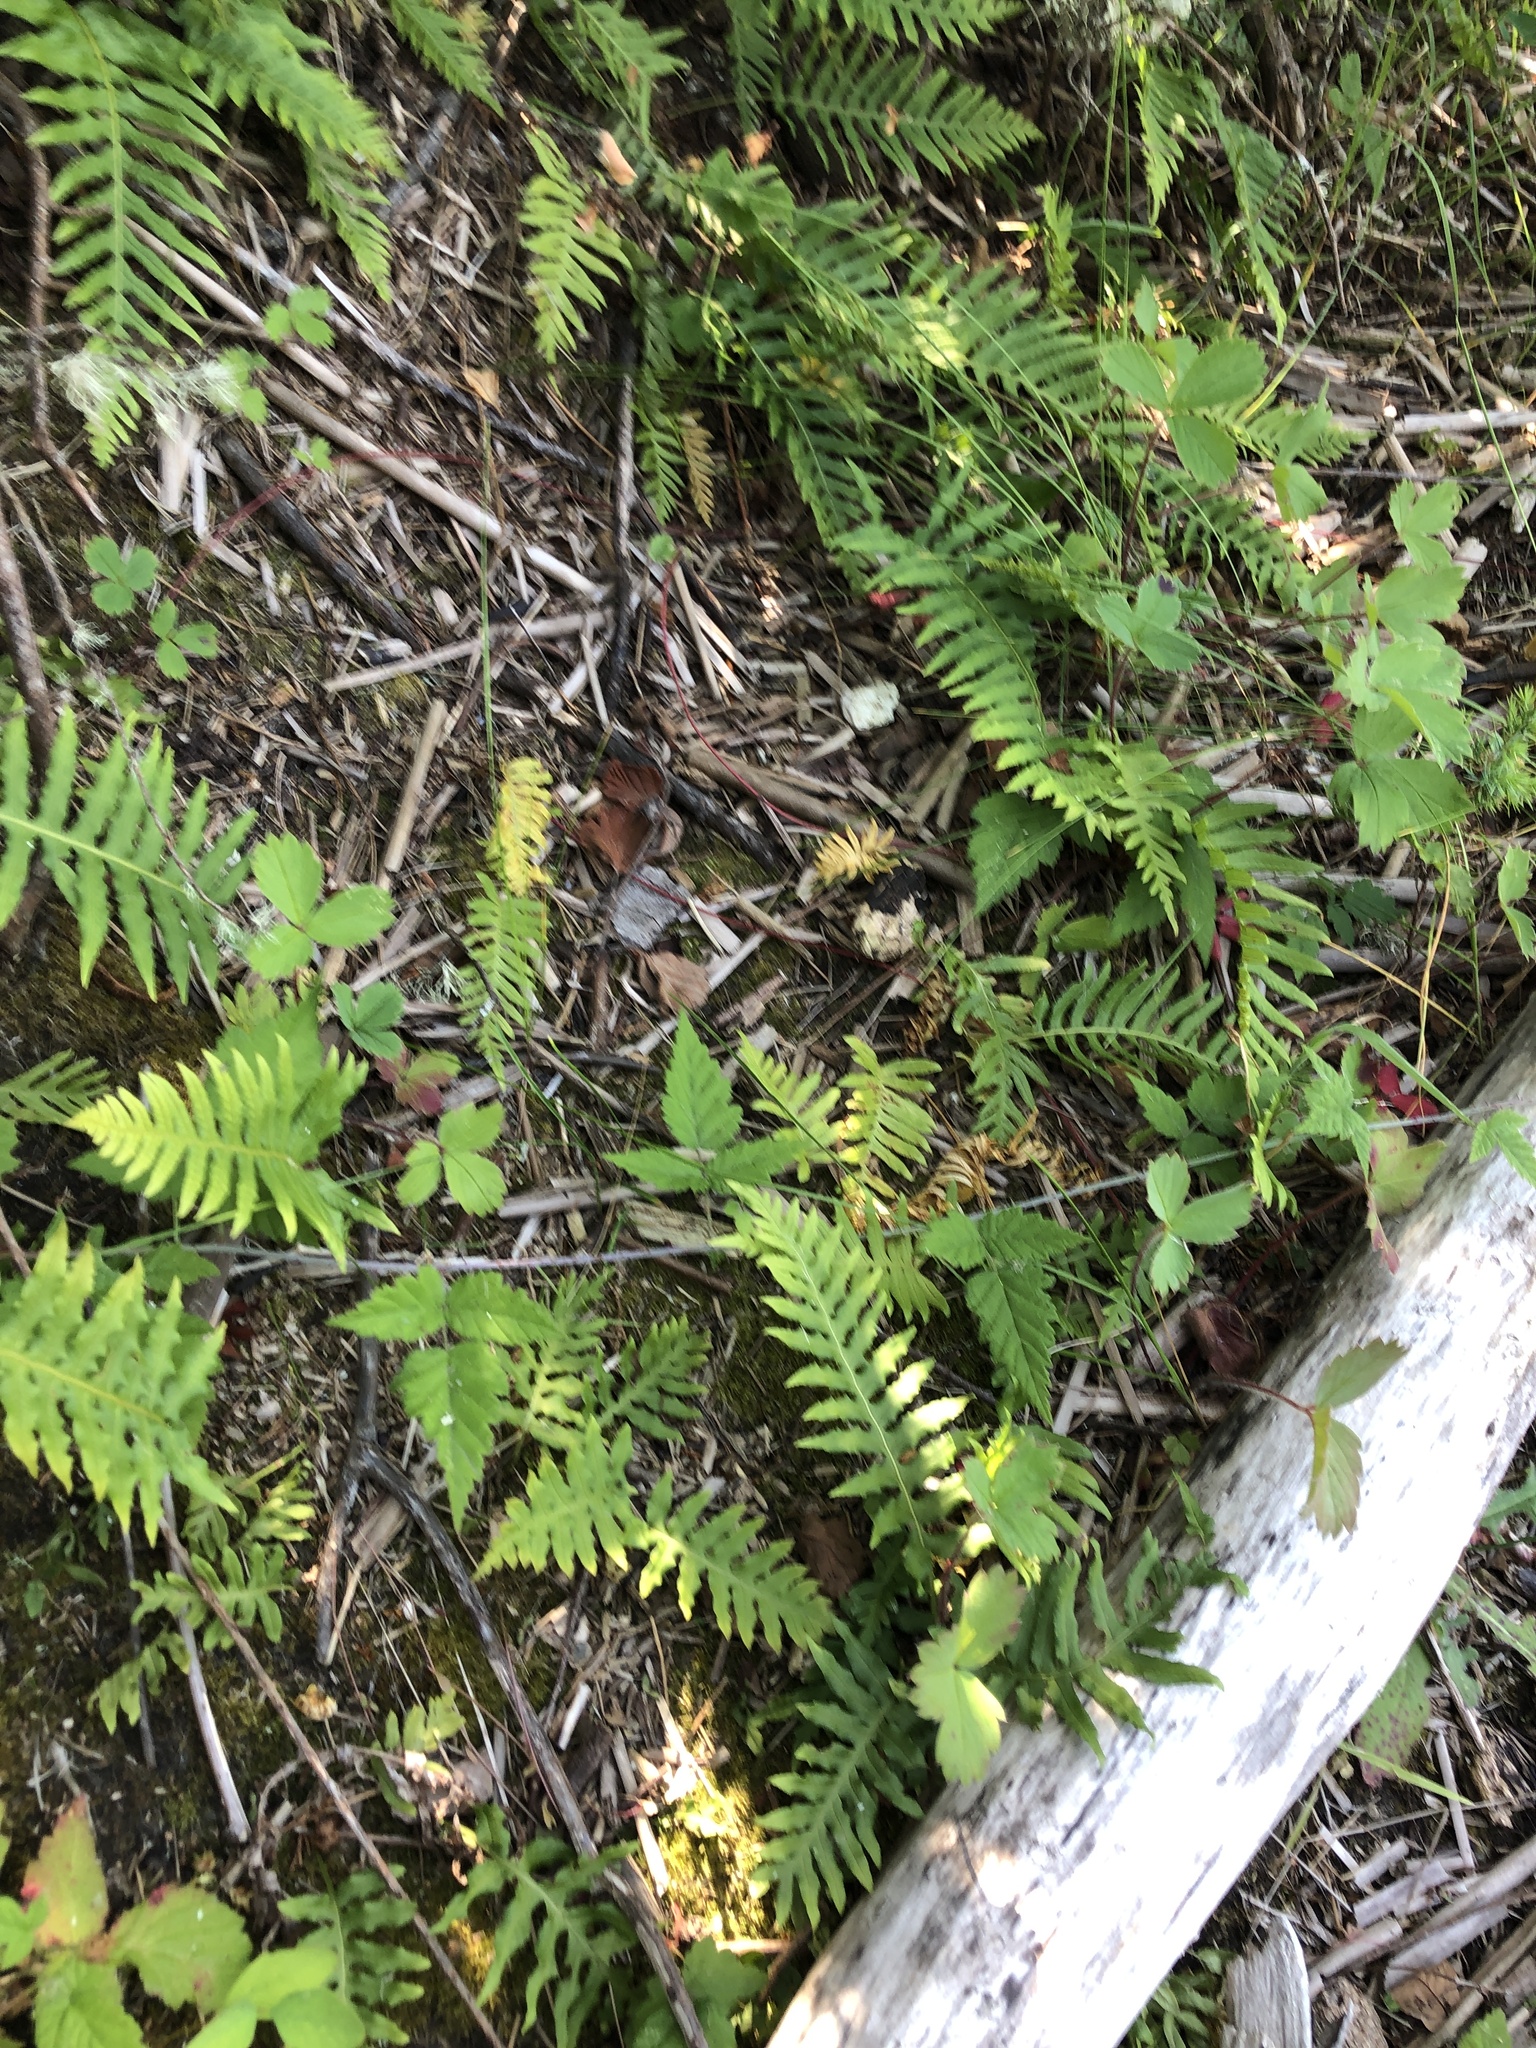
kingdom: Plantae
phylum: Tracheophyta
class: Polypodiopsida
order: Polypodiales
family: Polypodiaceae
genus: Polypodium
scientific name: Polypodium glycyrrhiza
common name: Licorice fern
